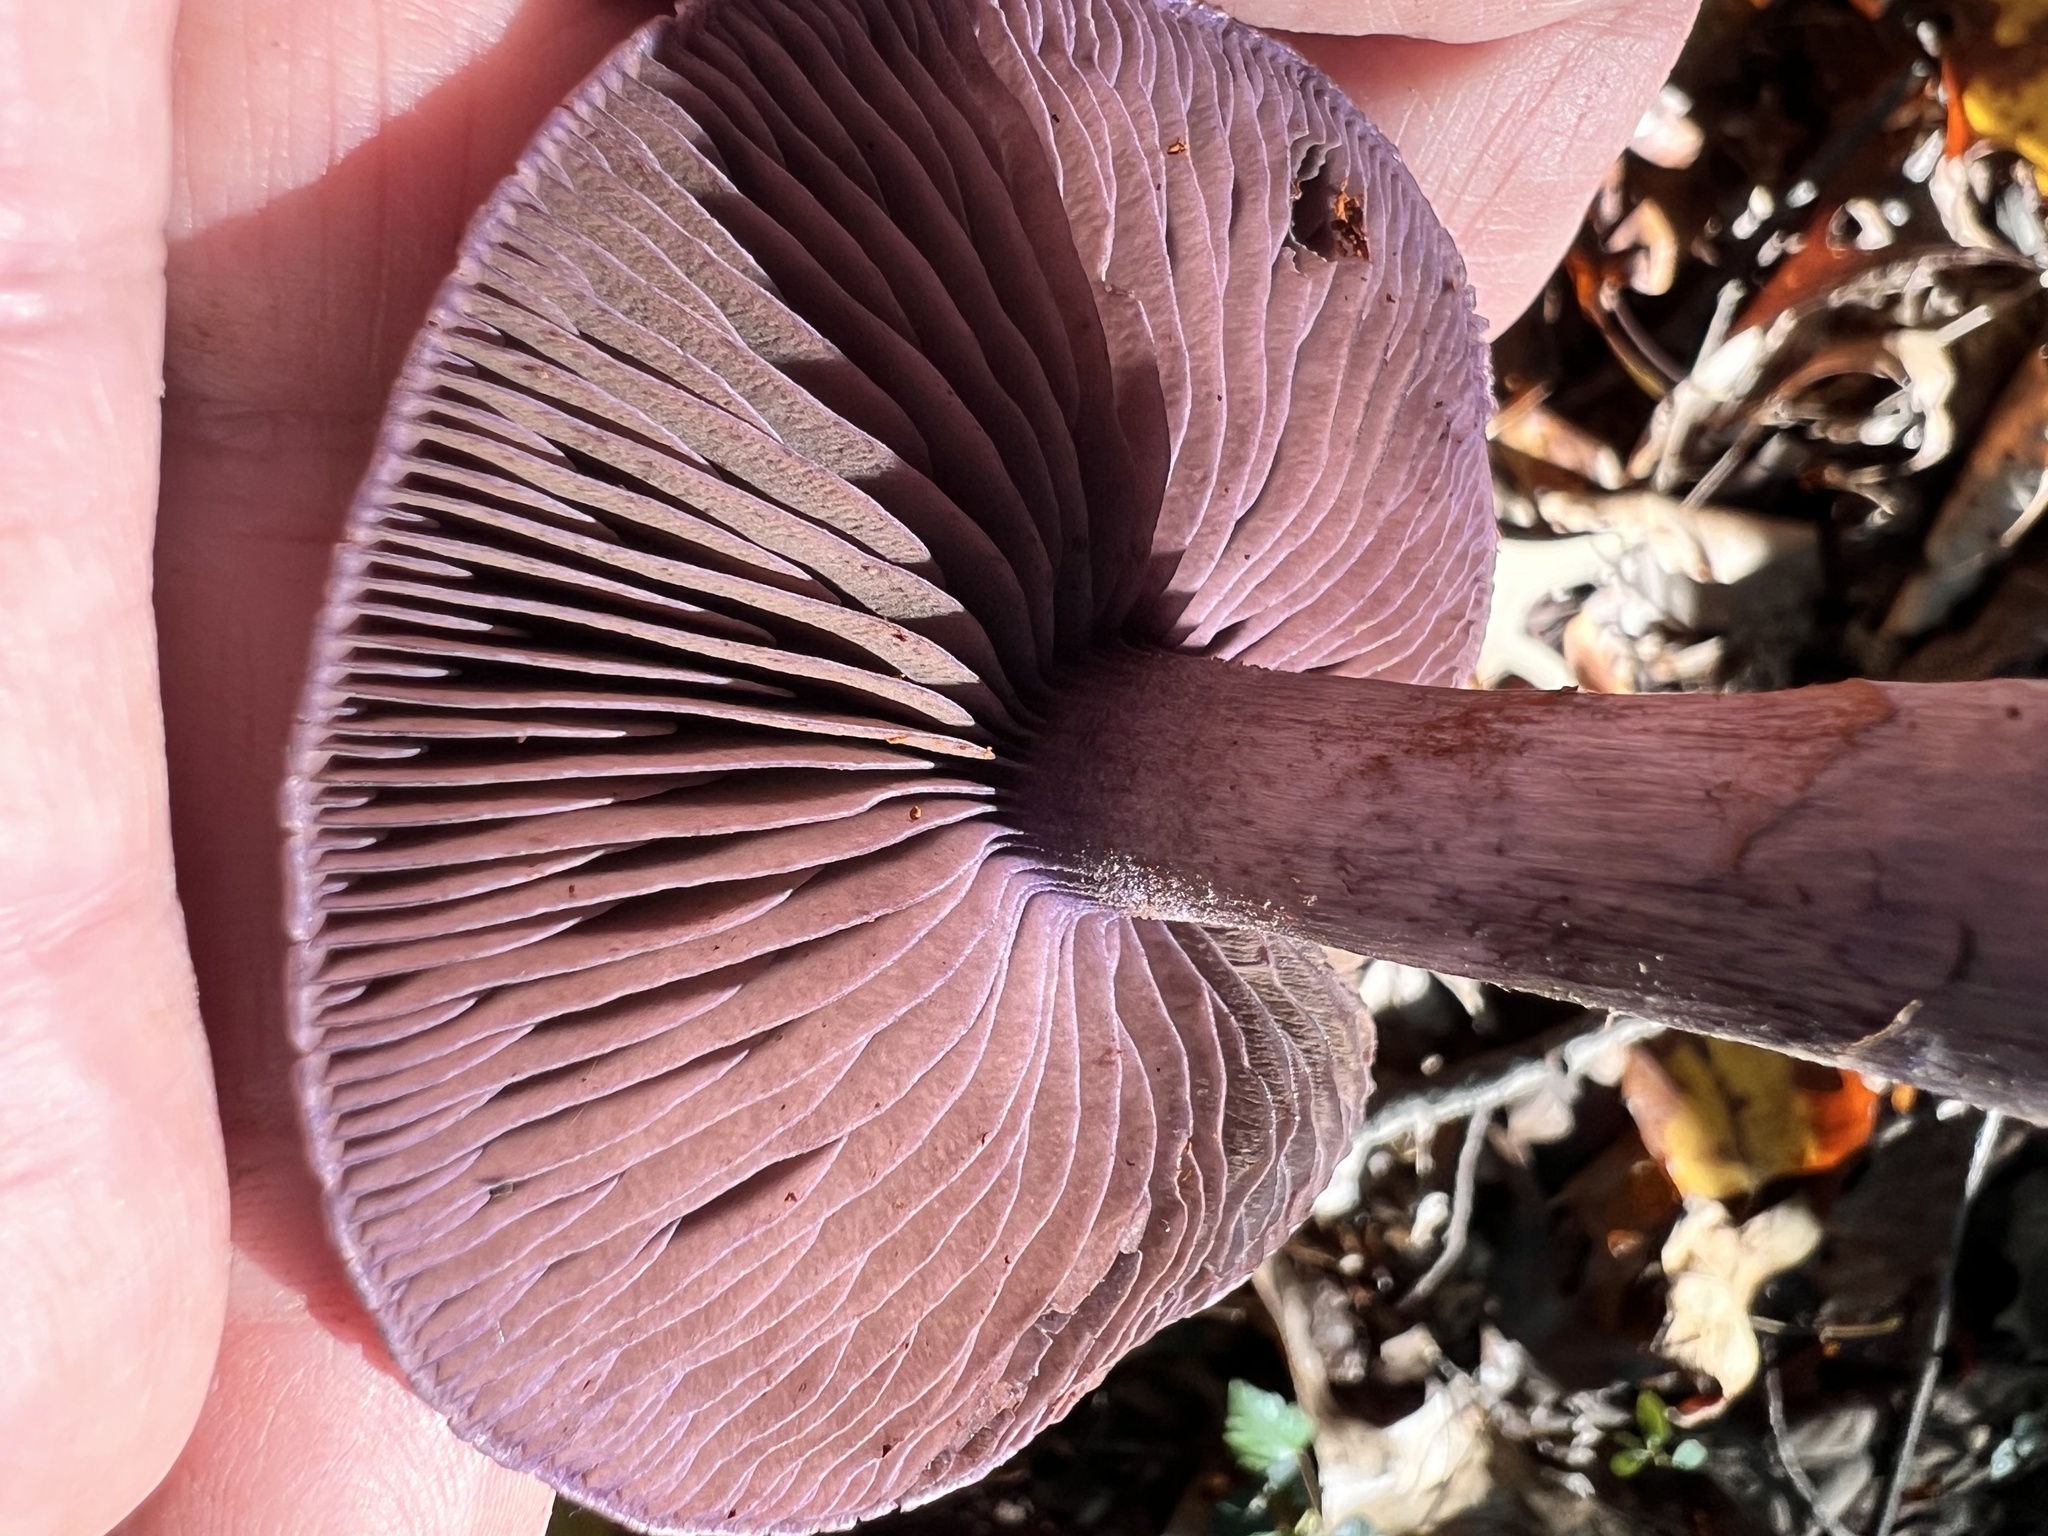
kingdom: Fungi
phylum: Basidiomycota
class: Agaricomycetes
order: Agaricales
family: Cortinariaceae
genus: Cortinarius
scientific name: Cortinarius violaceus
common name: Violet webcap
